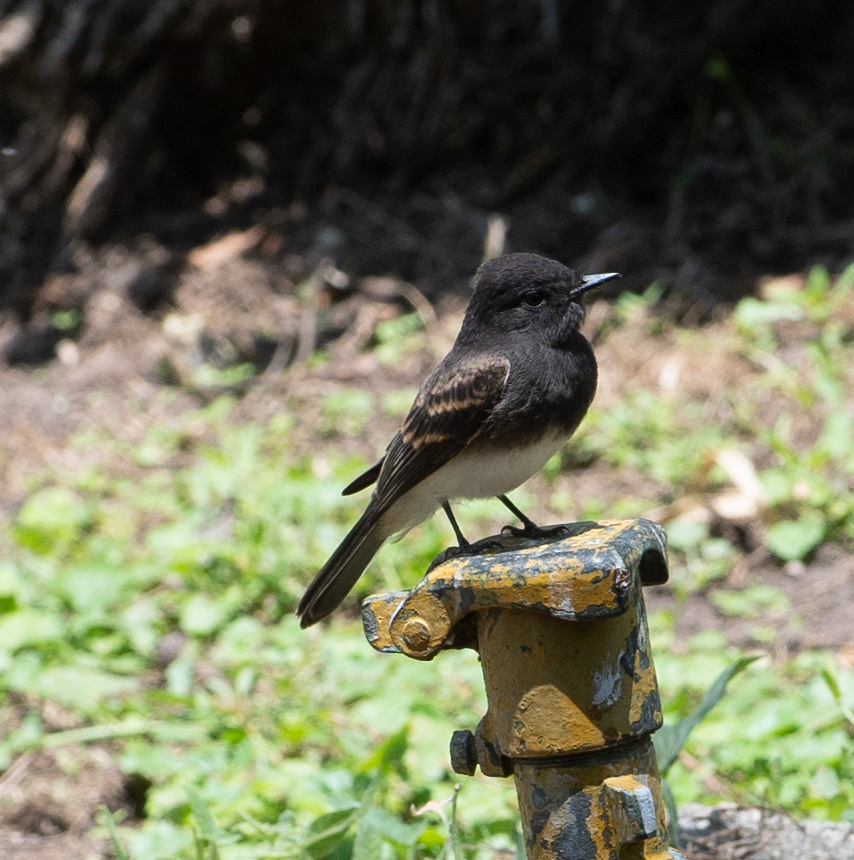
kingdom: Animalia
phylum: Chordata
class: Aves
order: Passeriformes
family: Tyrannidae
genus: Sayornis
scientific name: Sayornis nigricans
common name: Black phoebe
